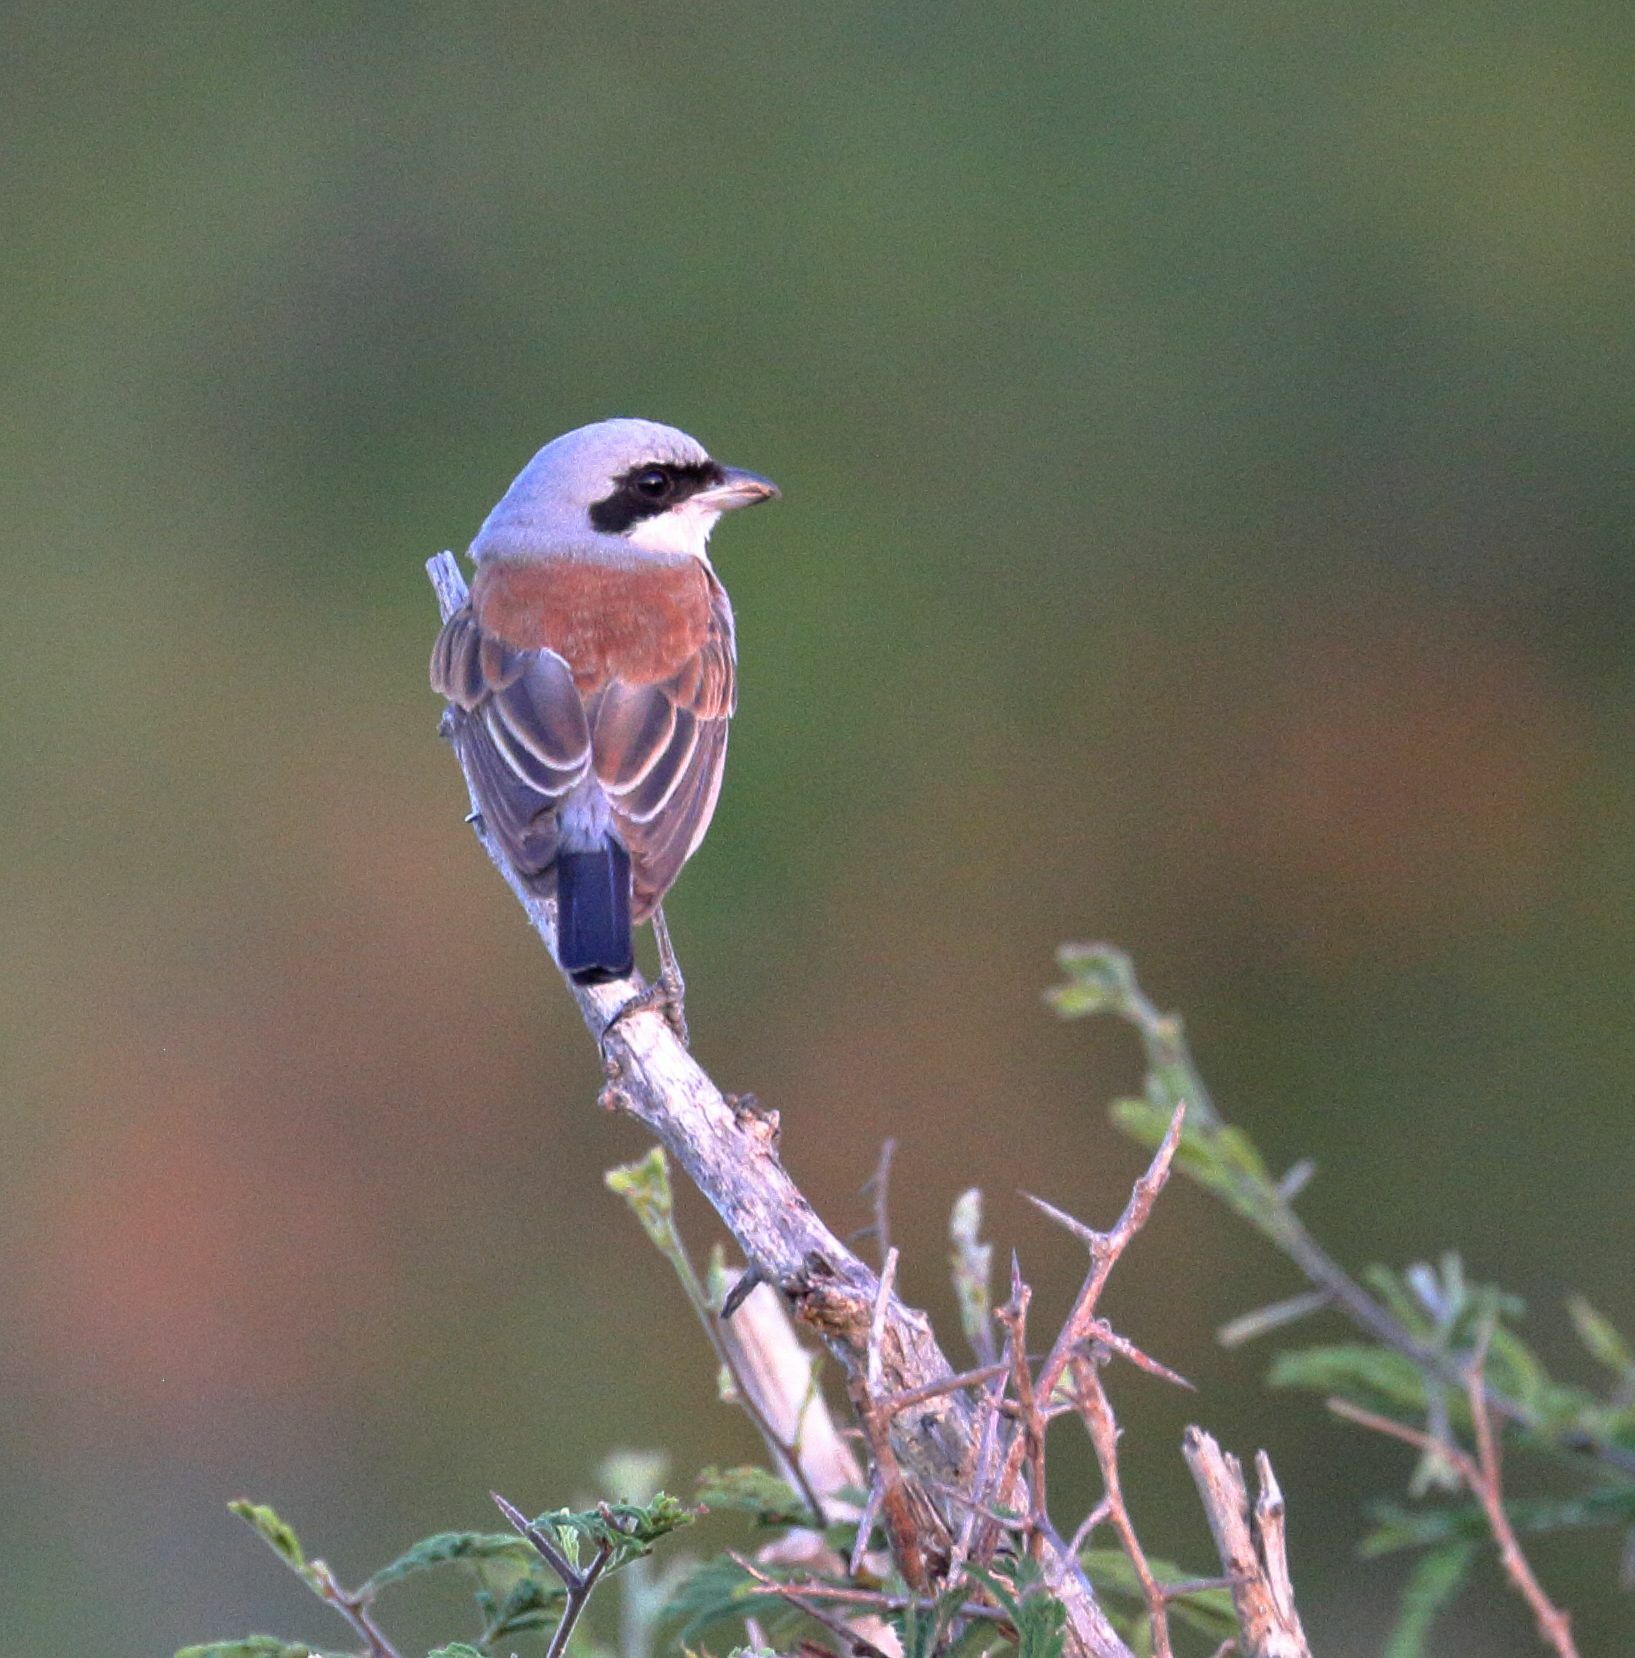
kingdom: Animalia
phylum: Chordata
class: Aves
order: Passeriformes
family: Laniidae
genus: Lanius
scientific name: Lanius collurio
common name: Red-backed shrike
